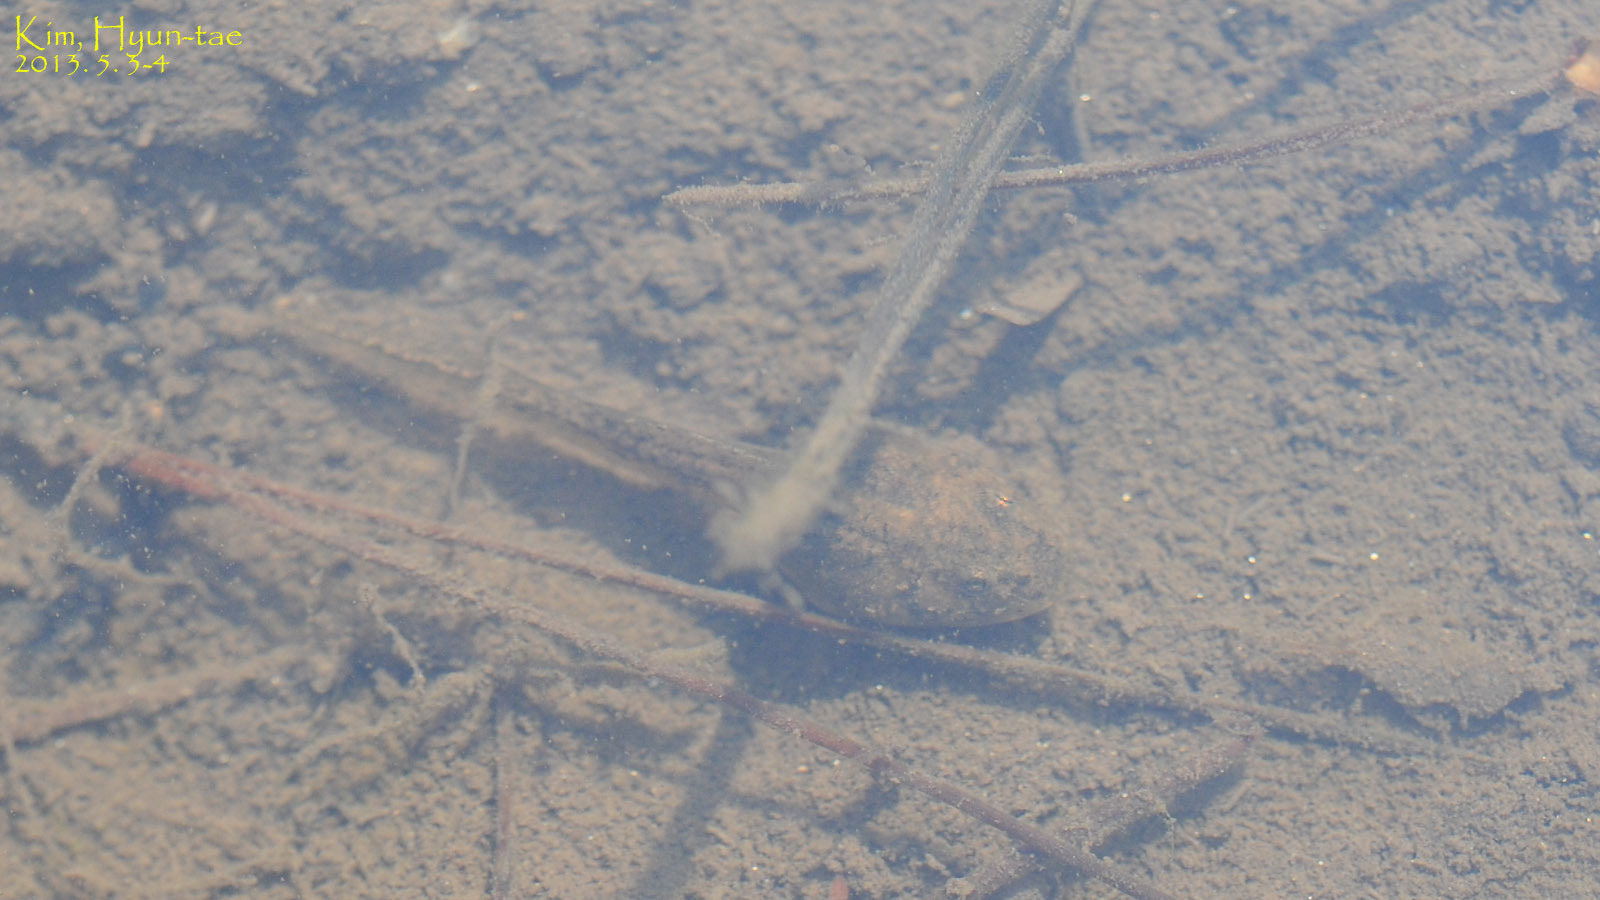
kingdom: Animalia
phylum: Chordata
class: Amphibia
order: Anura
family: Ranidae
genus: Glandirana
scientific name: Glandirana emeljanovi
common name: Northeast china rough-skinned frog
